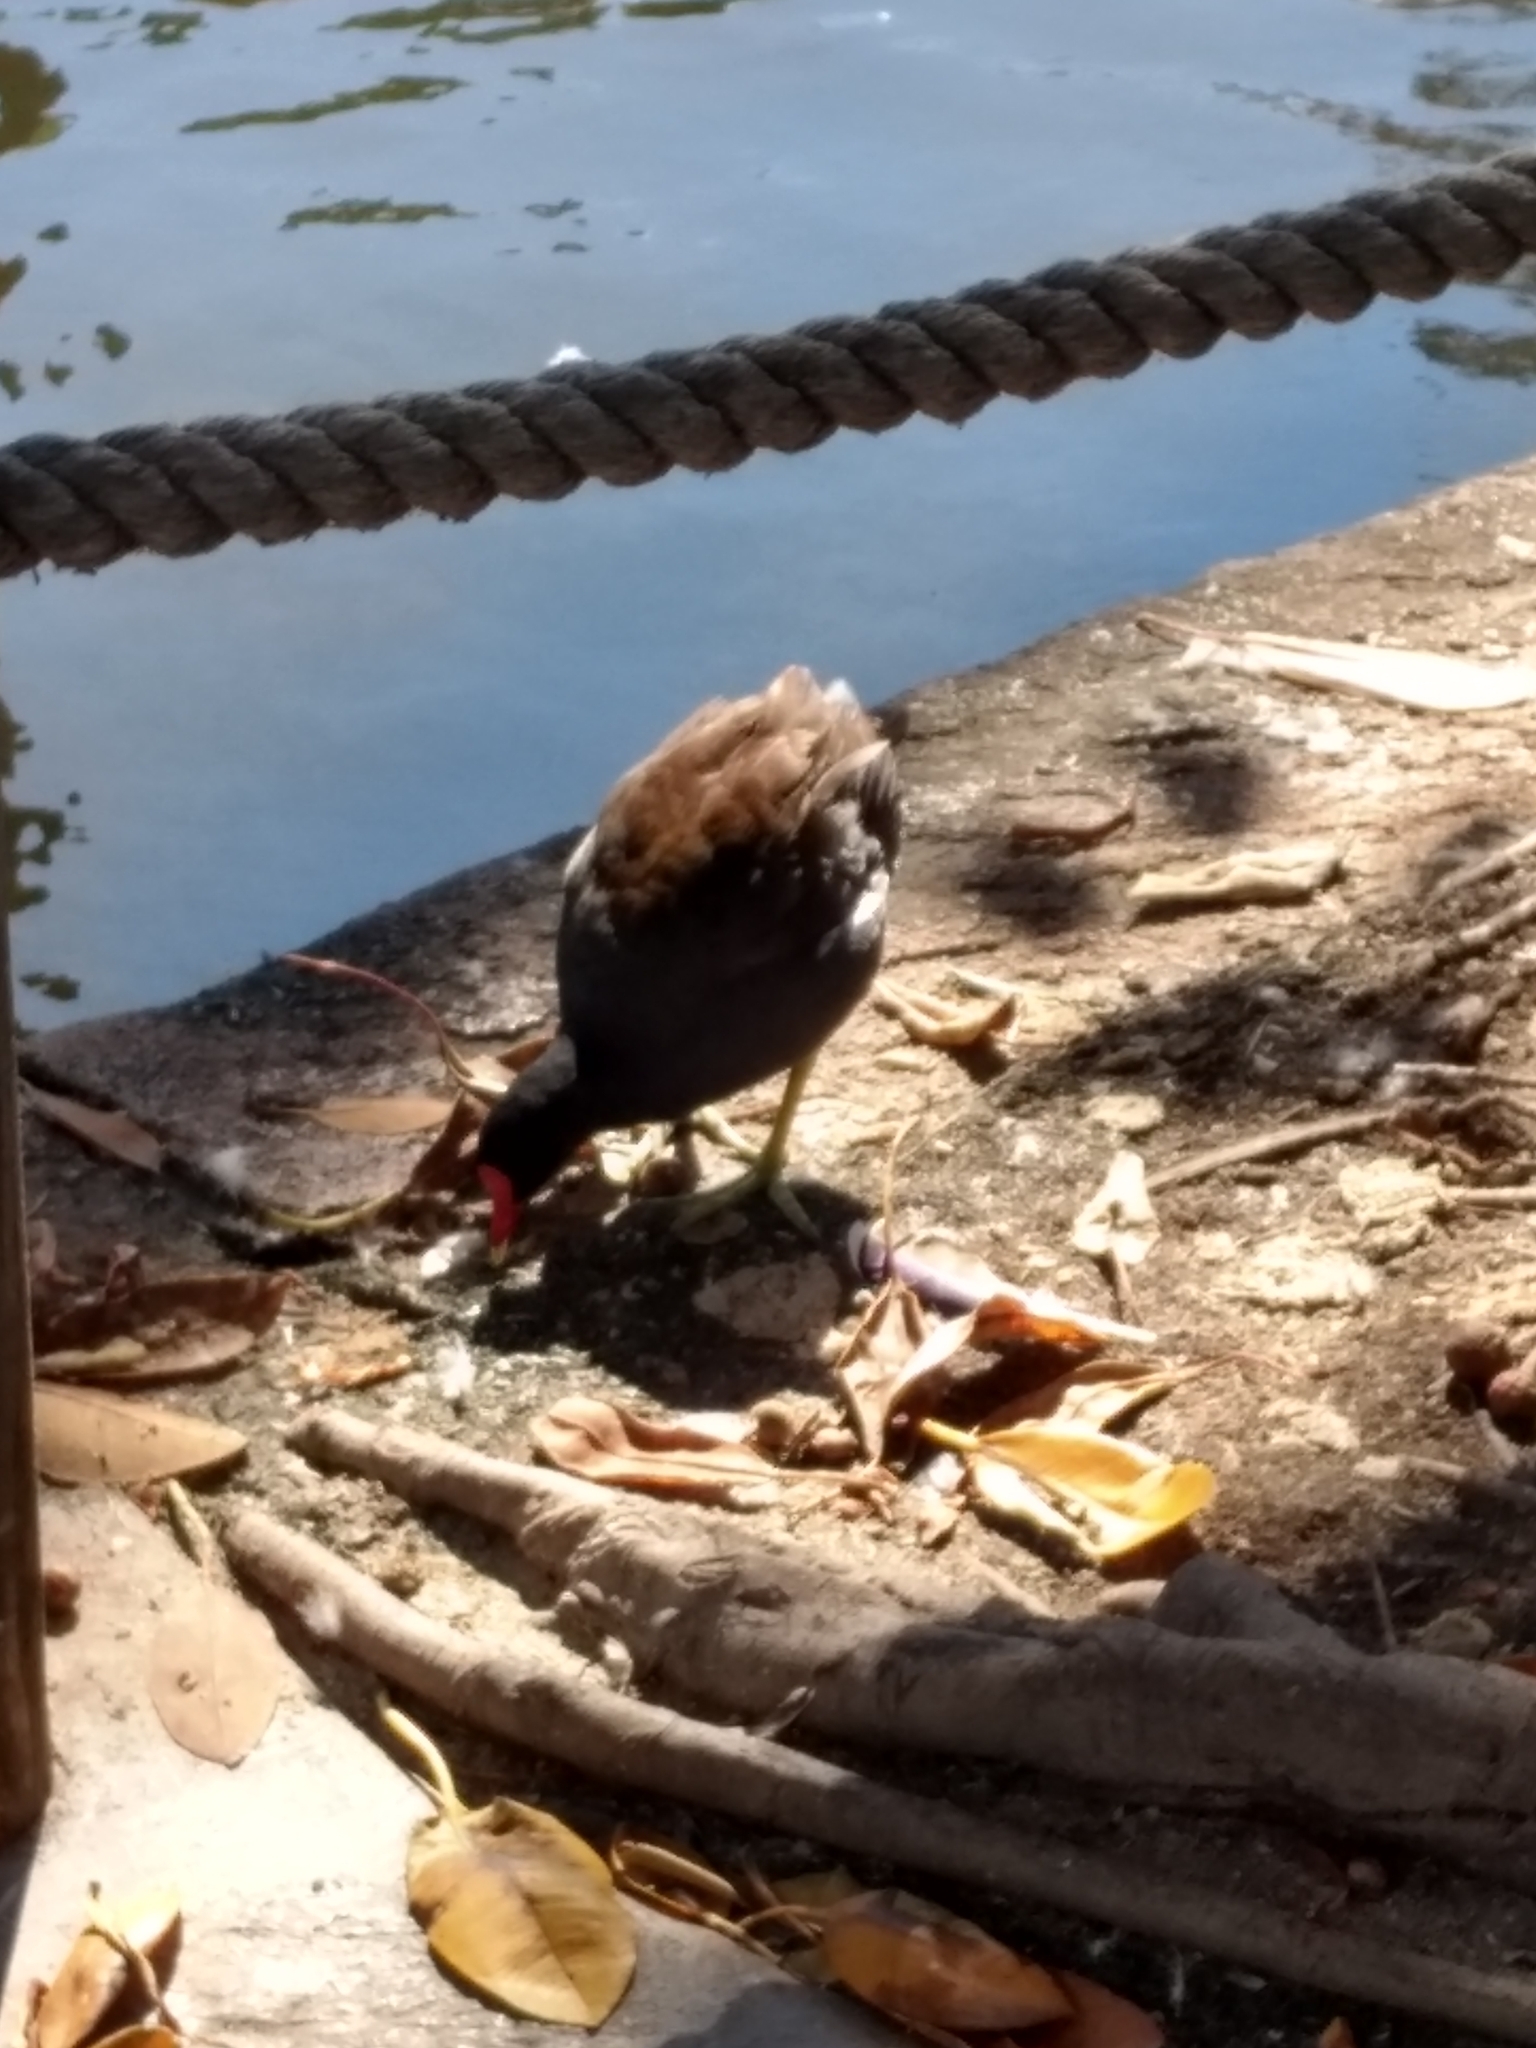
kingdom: Animalia
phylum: Chordata
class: Aves
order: Gruiformes
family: Rallidae
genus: Gallinula
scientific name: Gallinula chloropus
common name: Common moorhen
